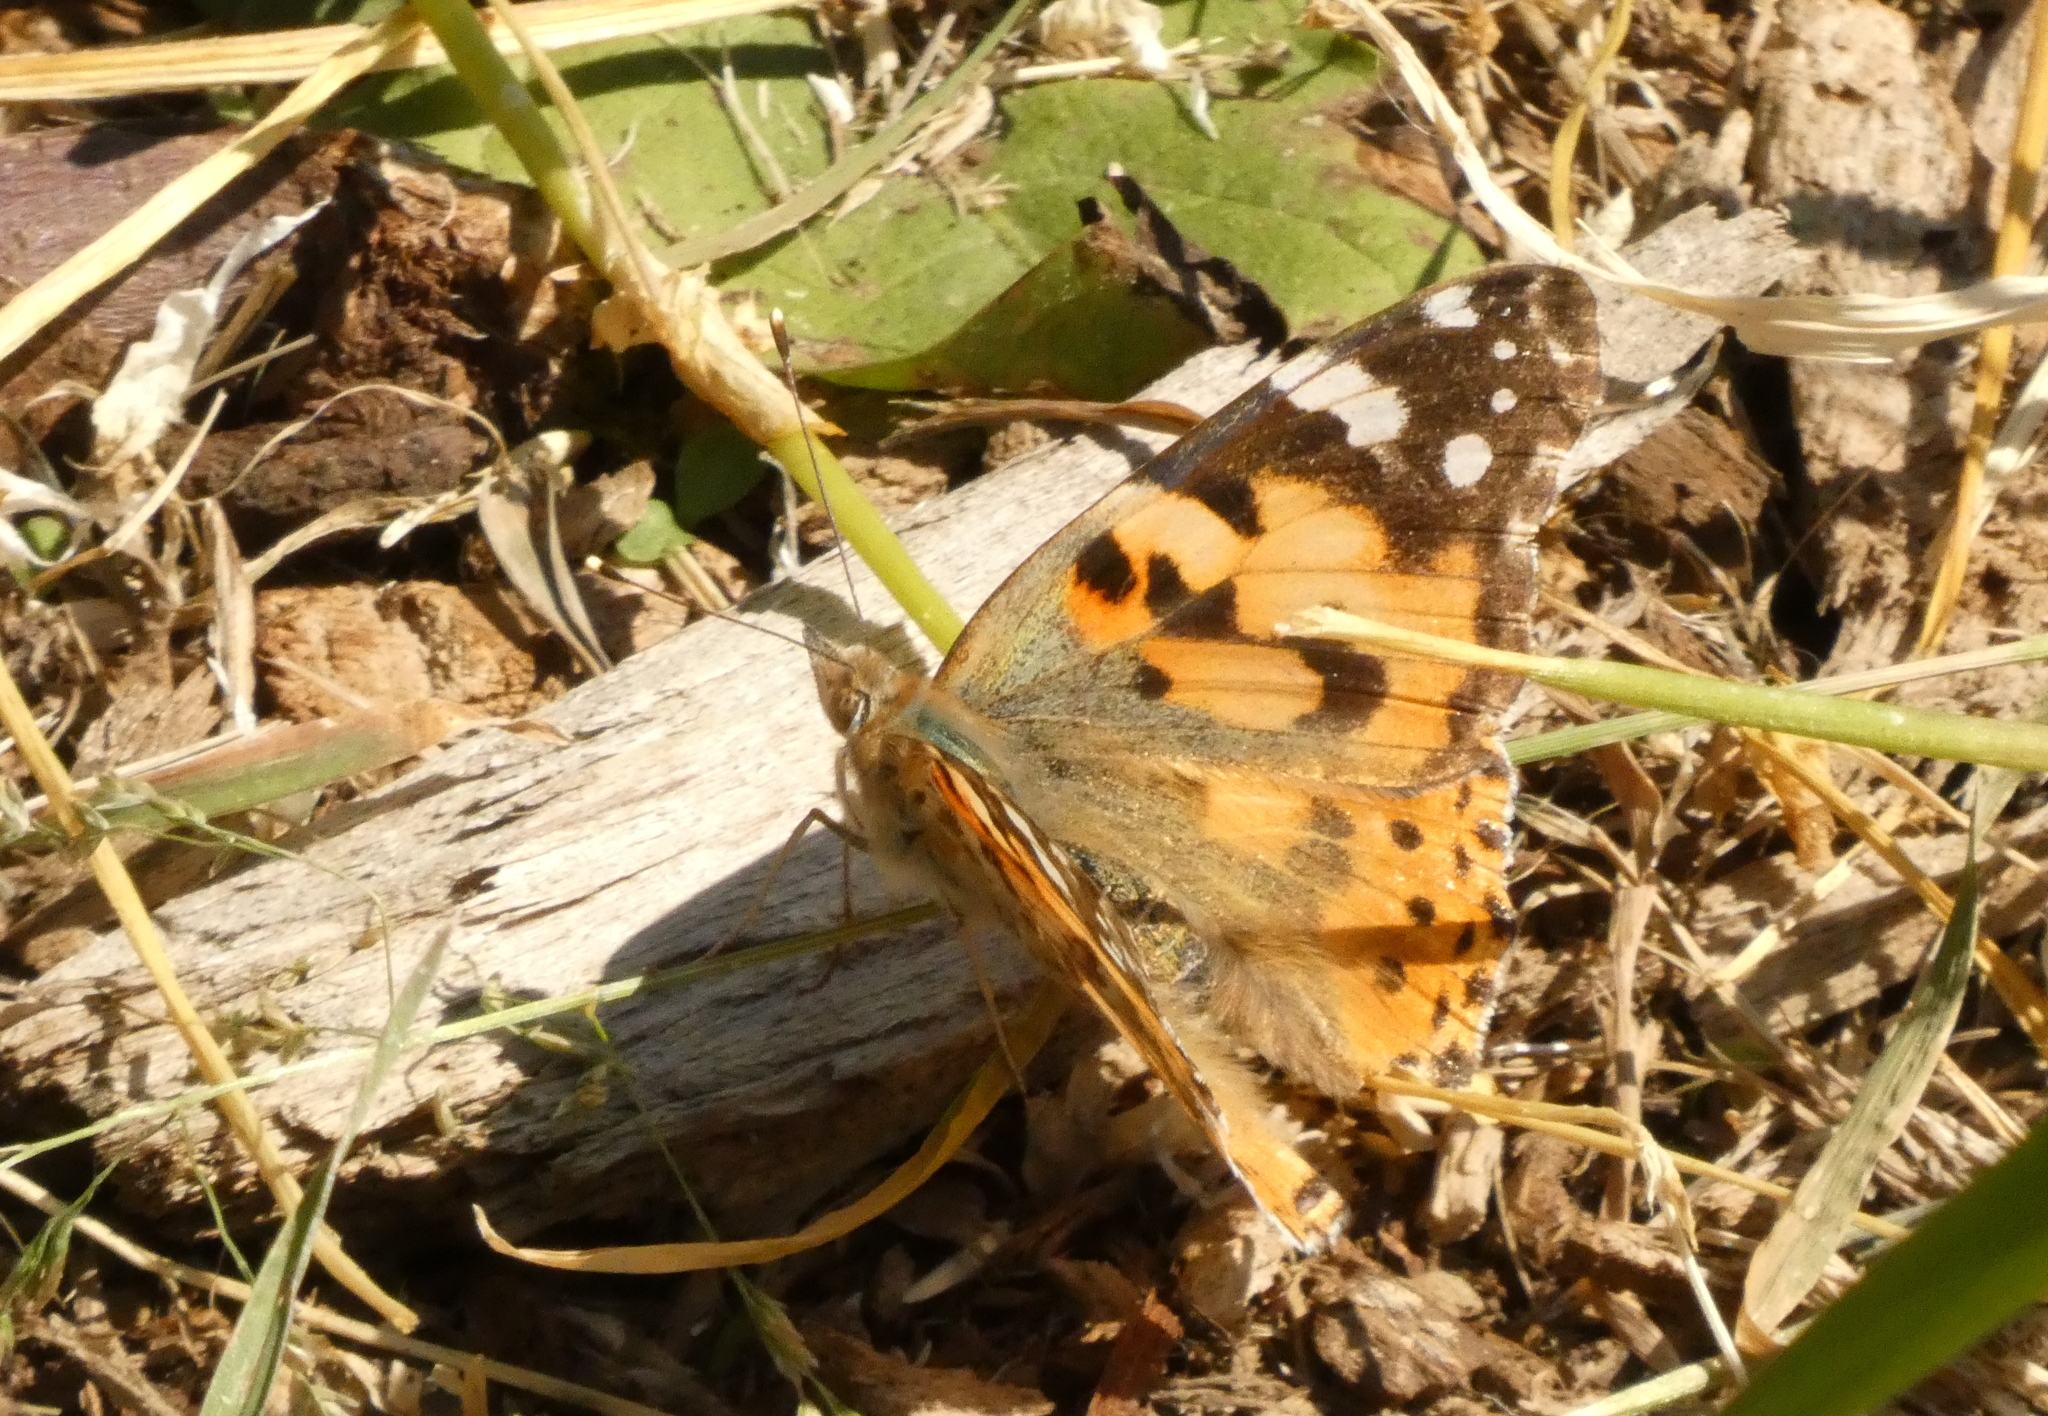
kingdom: Animalia
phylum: Arthropoda
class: Insecta
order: Lepidoptera
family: Nymphalidae
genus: Vanessa
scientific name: Vanessa cardui
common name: Painted lady
